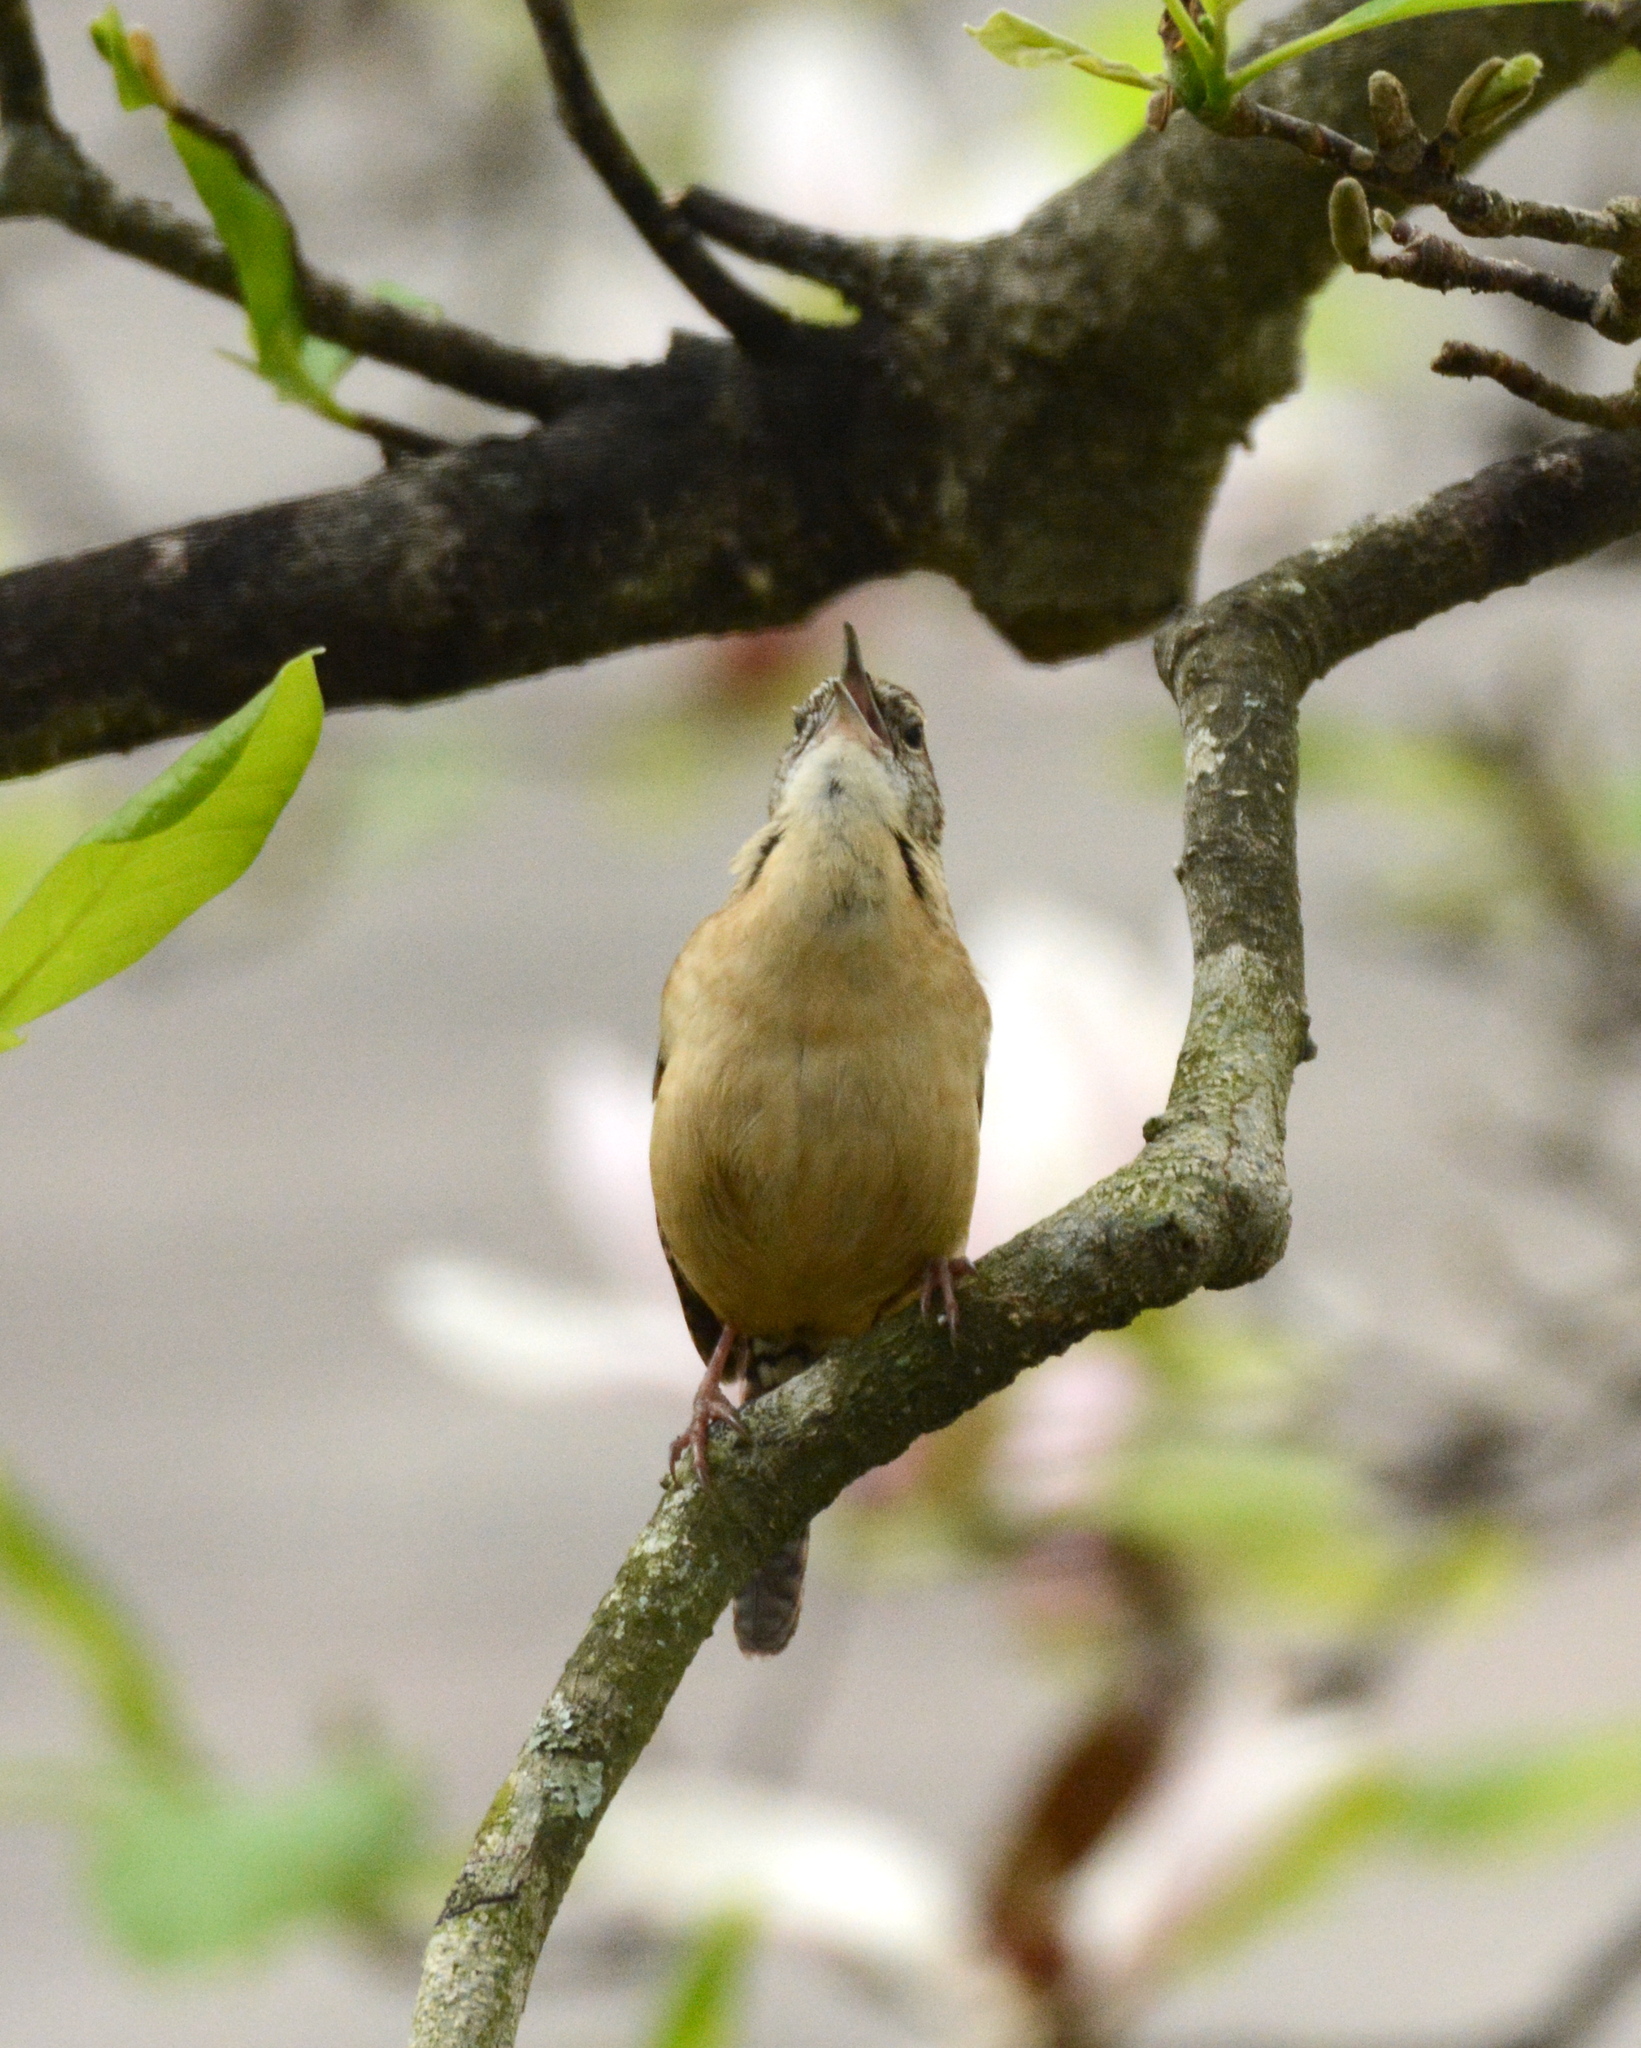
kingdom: Animalia
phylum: Chordata
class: Aves
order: Passeriformes
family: Troglodytidae
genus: Thryothorus
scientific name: Thryothorus ludovicianus
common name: Carolina wren
